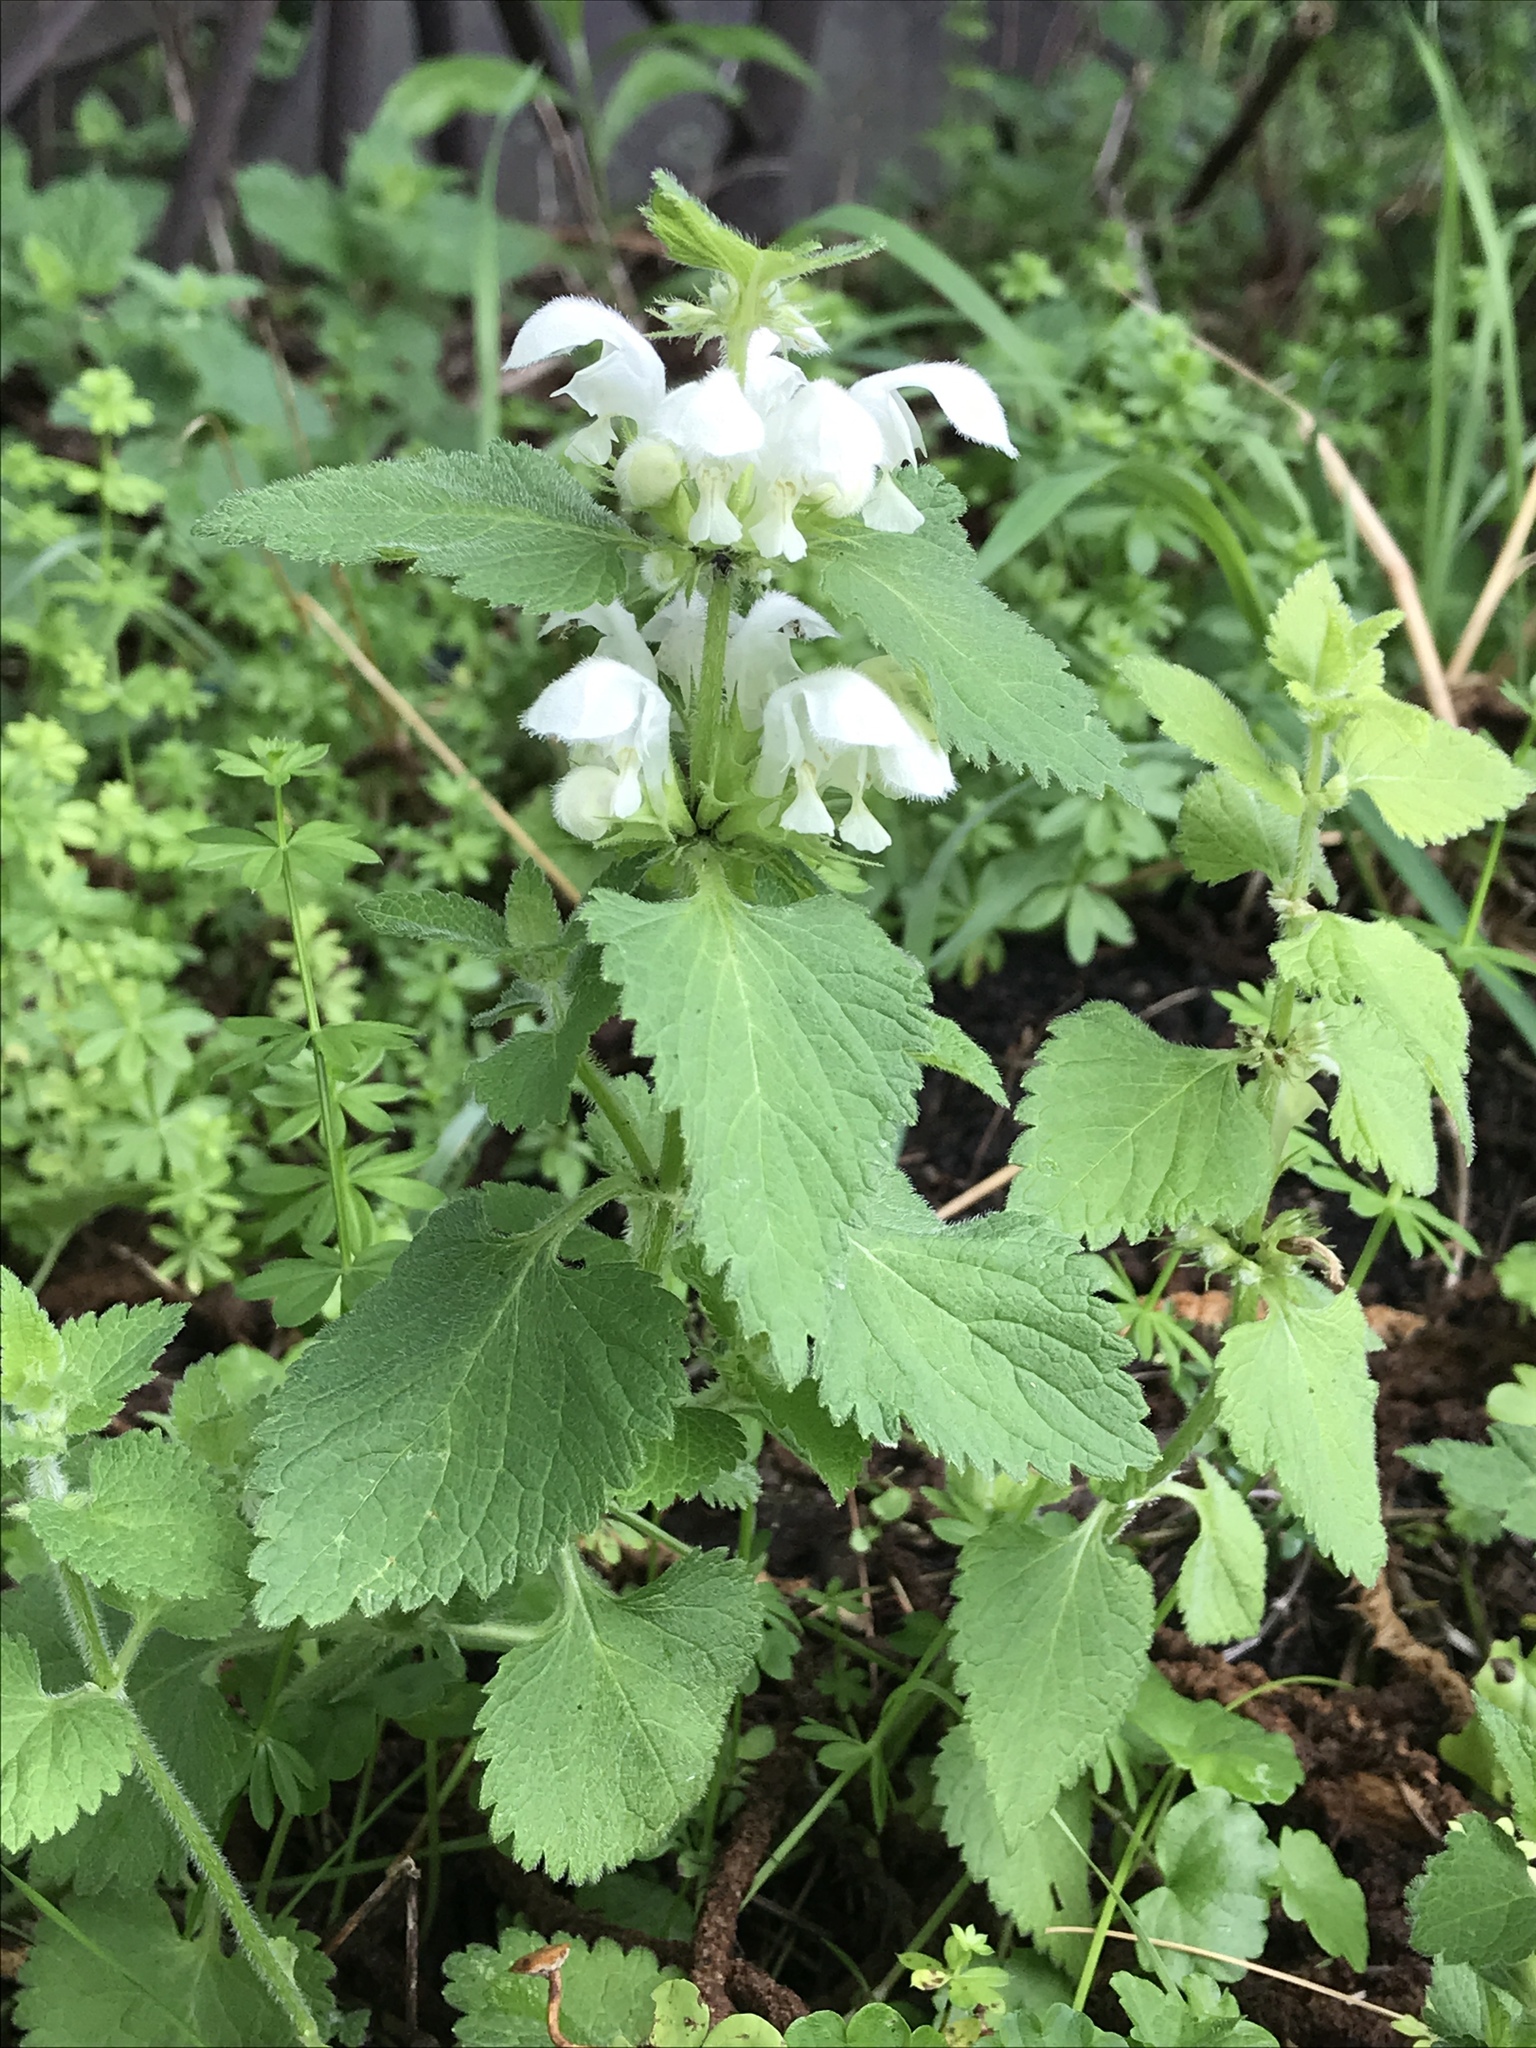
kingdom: Plantae
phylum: Tracheophyta
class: Magnoliopsida
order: Lamiales
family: Lamiaceae
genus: Lamium
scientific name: Lamium album
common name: White dead-nettle
